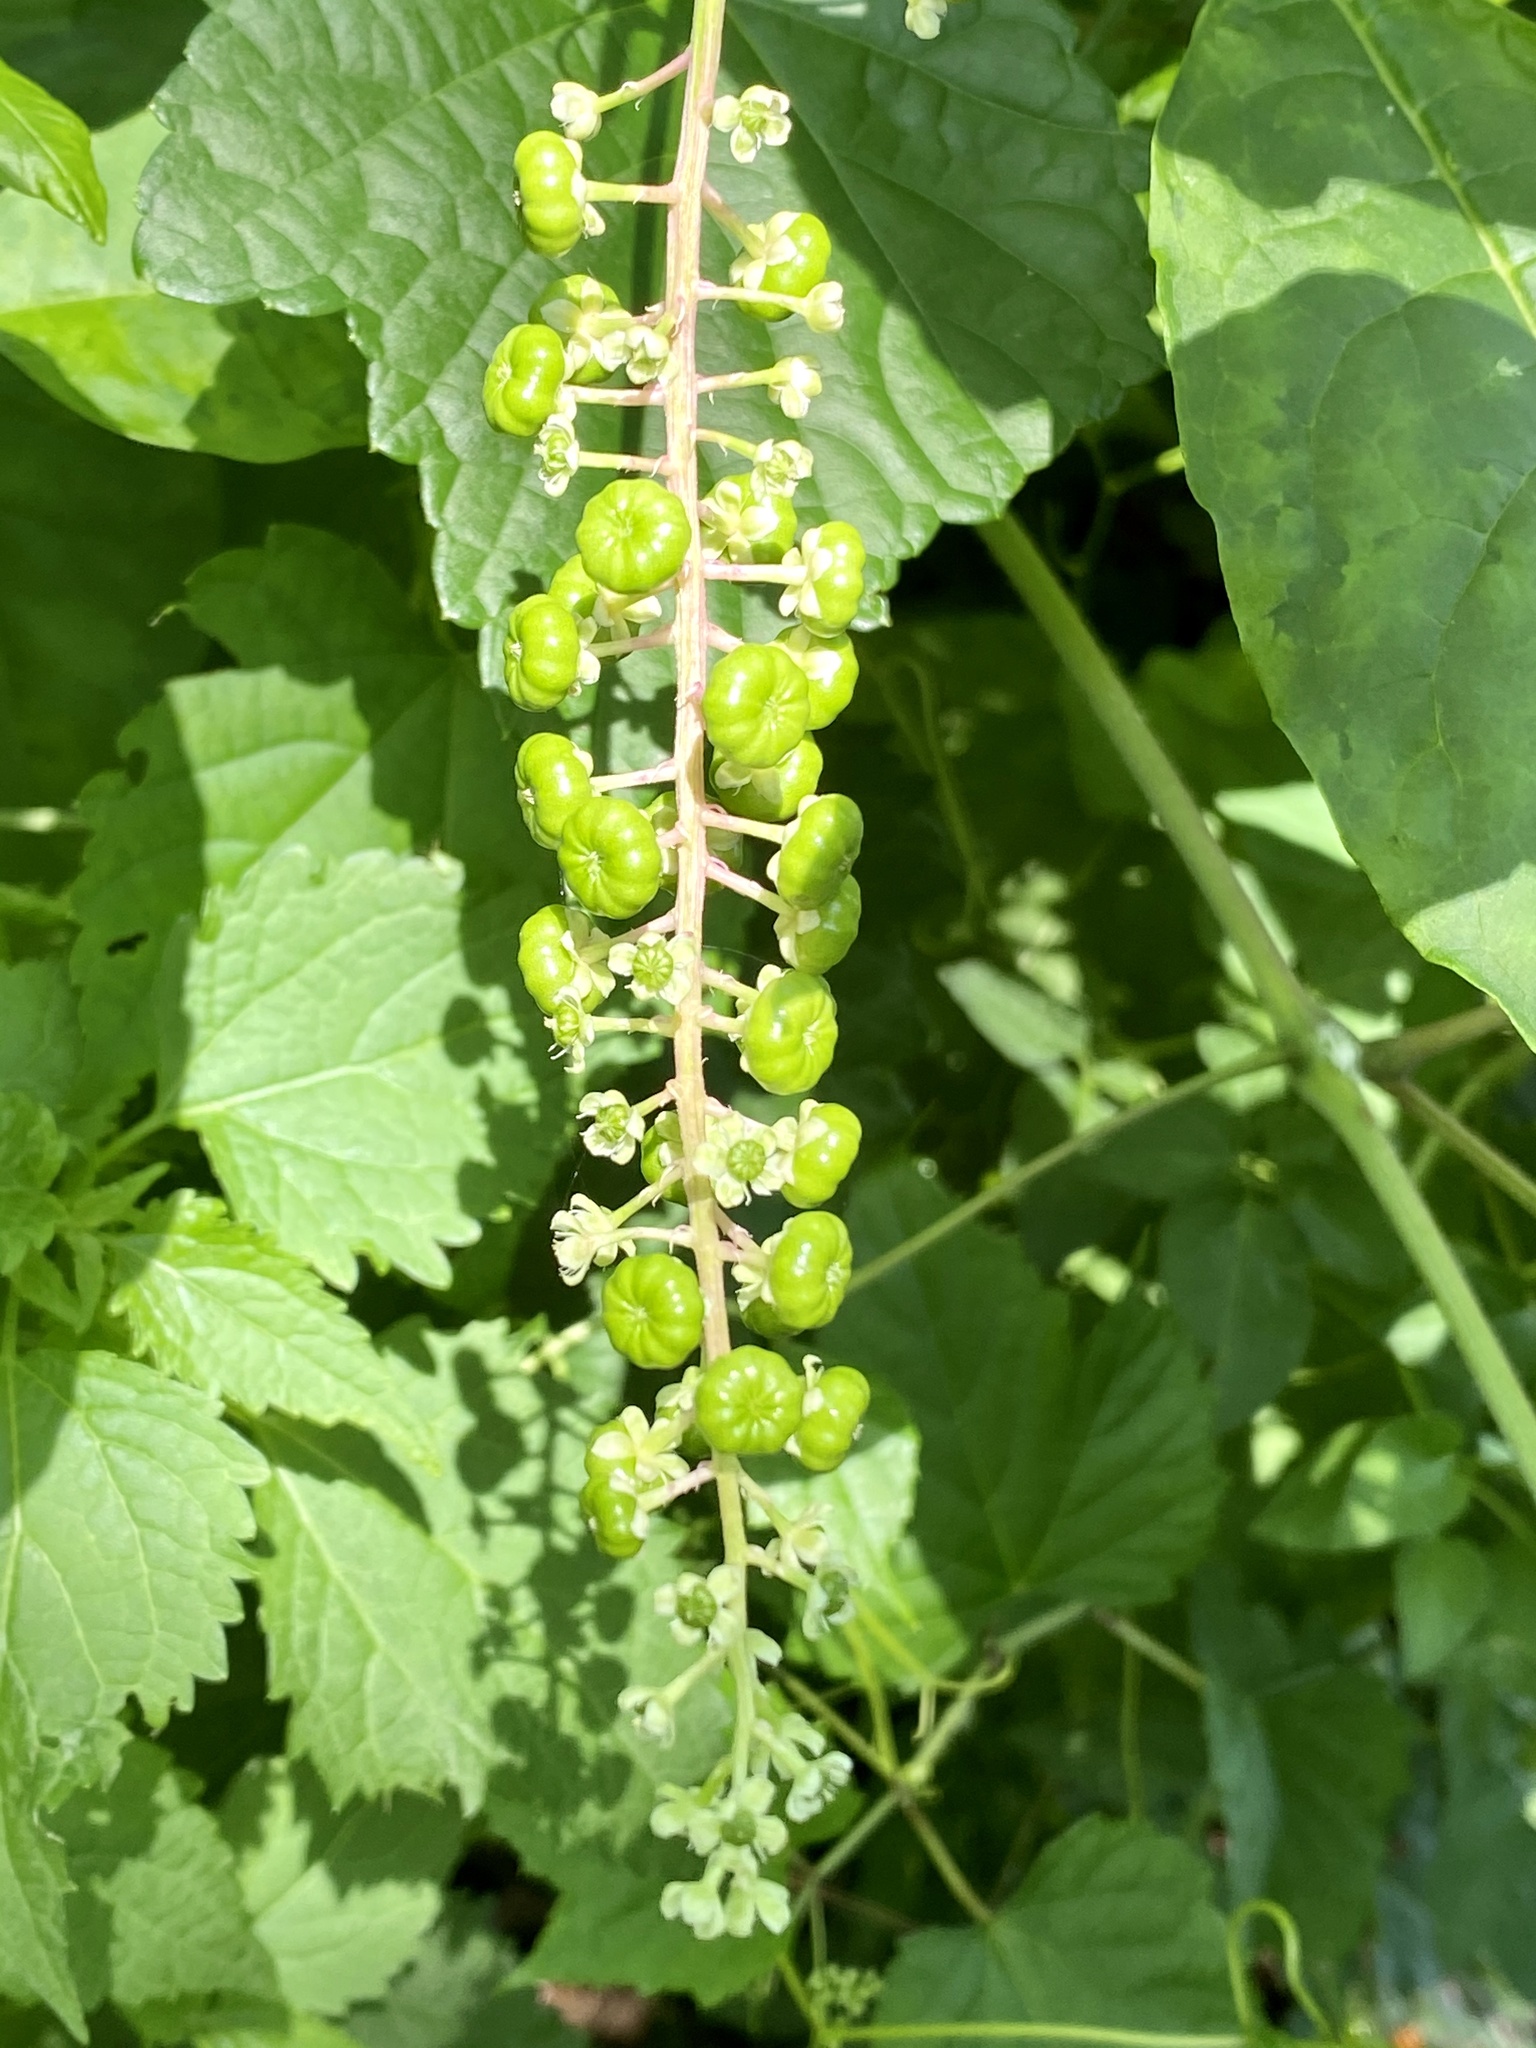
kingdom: Plantae
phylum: Tracheophyta
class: Magnoliopsida
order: Caryophyllales
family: Phytolaccaceae
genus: Phytolacca
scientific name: Phytolacca americana
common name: American pokeweed
